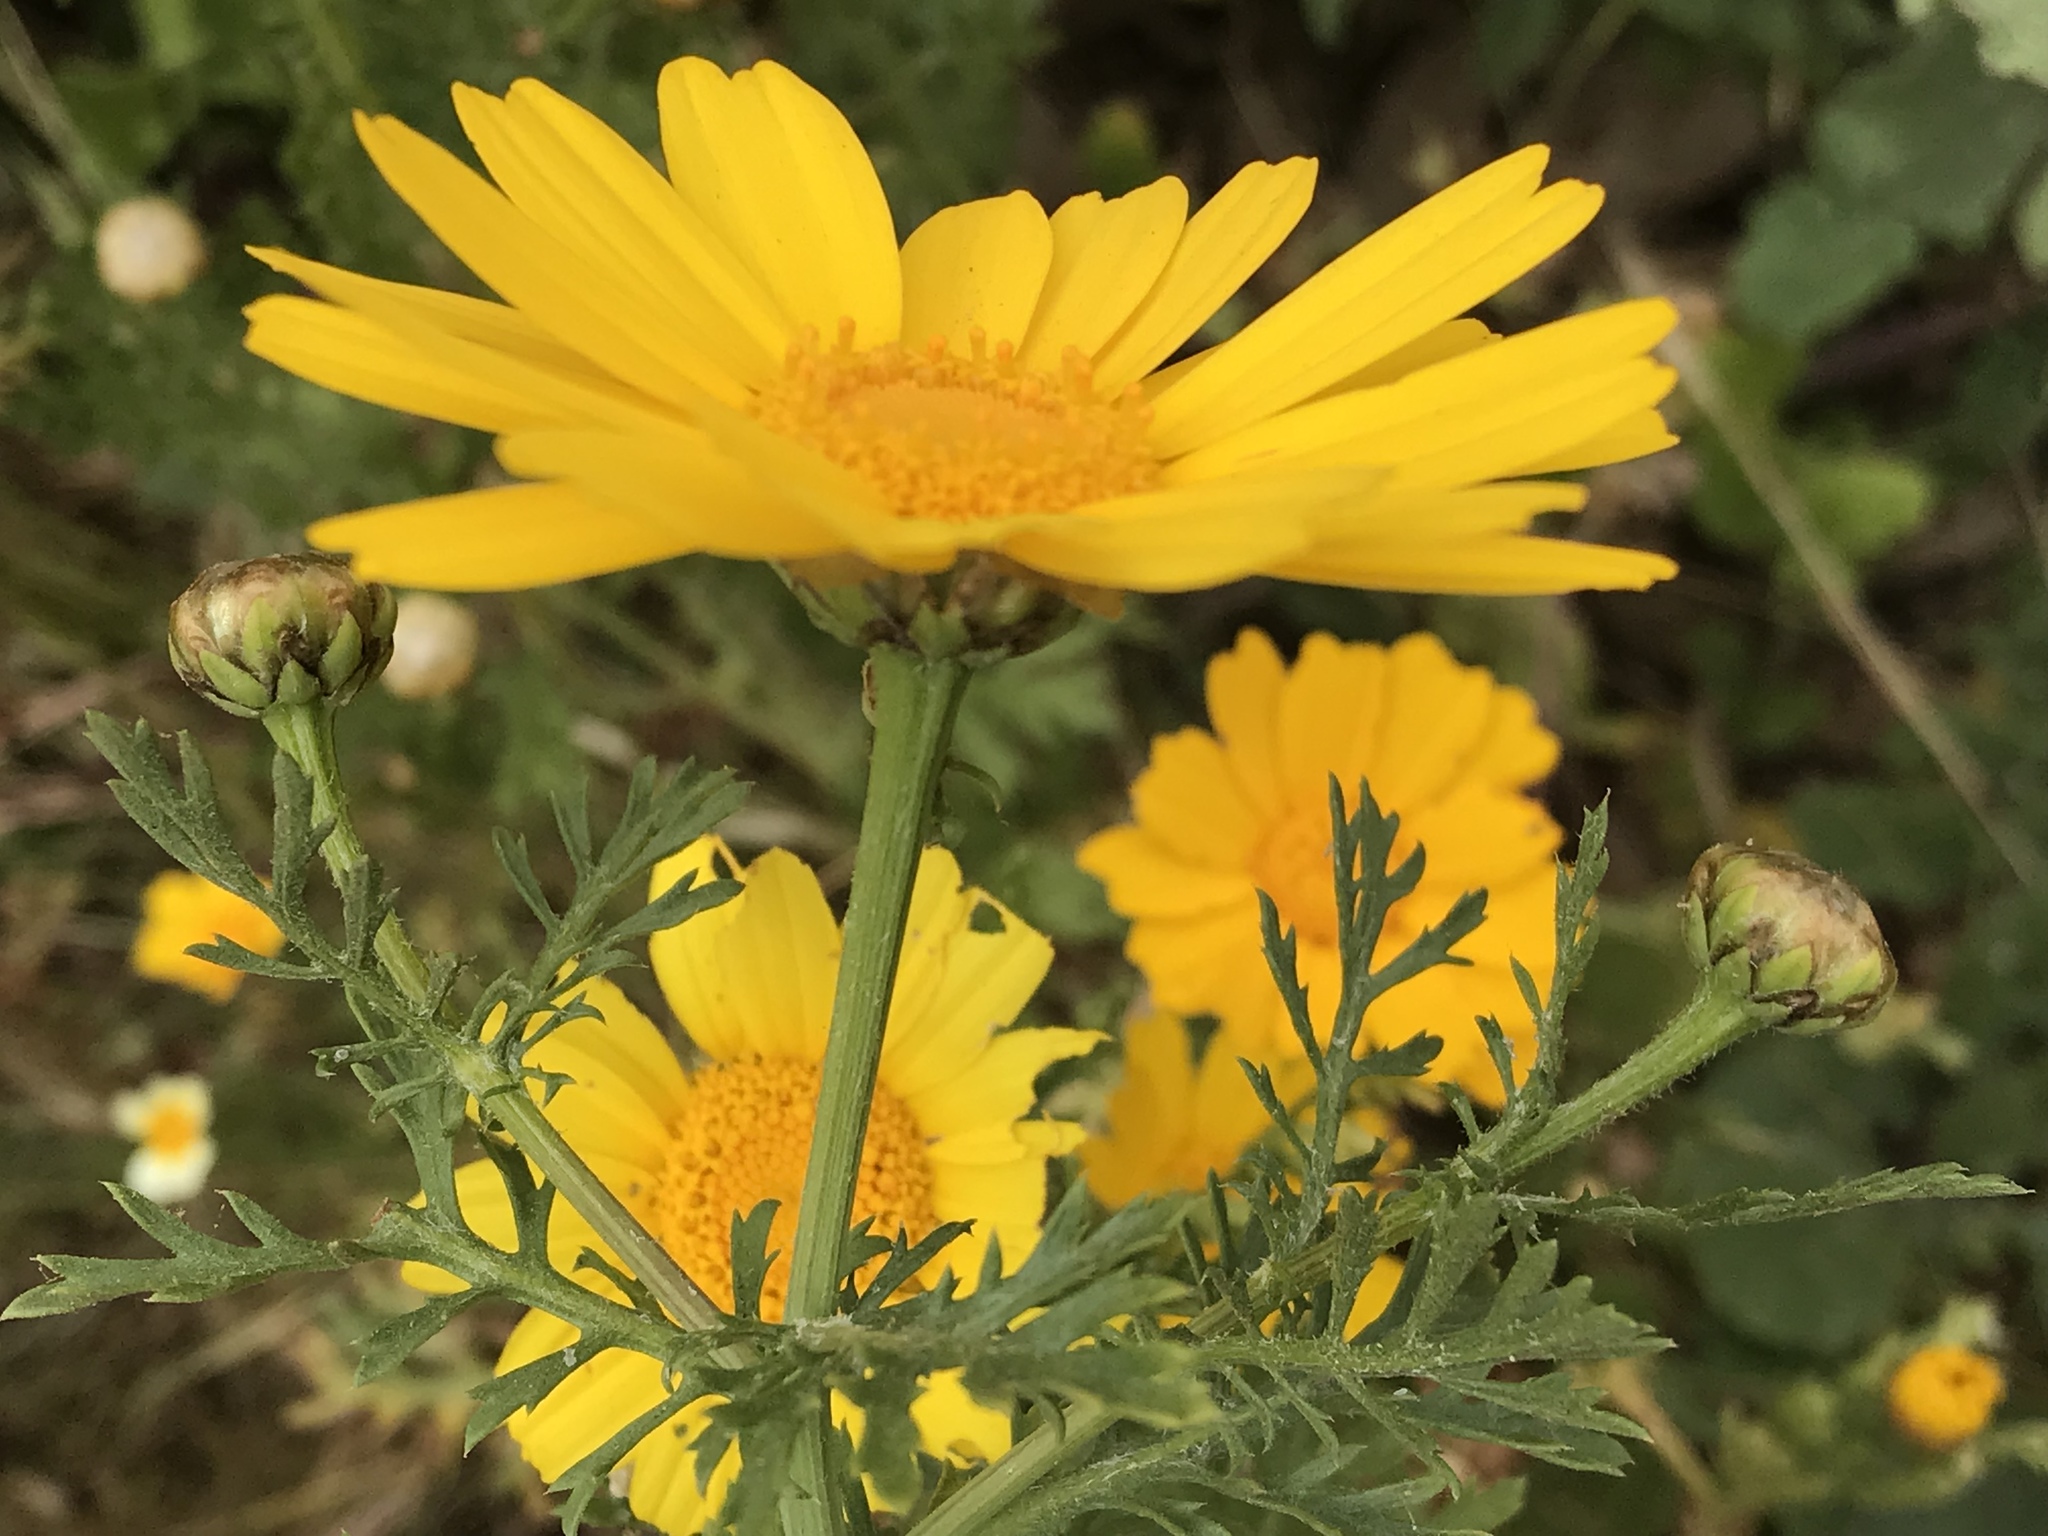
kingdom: Plantae
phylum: Tracheophyta
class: Magnoliopsida
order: Asterales
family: Asteraceae
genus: Glebionis
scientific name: Glebionis coronaria
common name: Crowndaisy
